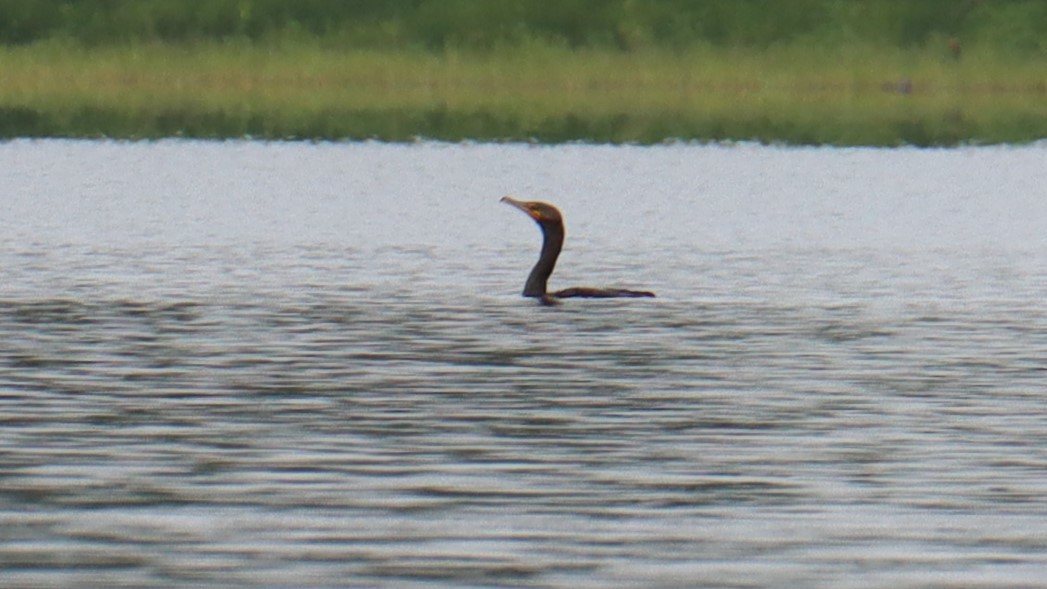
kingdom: Animalia
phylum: Chordata
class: Aves
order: Suliformes
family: Phalacrocoracidae
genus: Phalacrocorax
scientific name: Phalacrocorax auritus
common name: Double-crested cormorant
